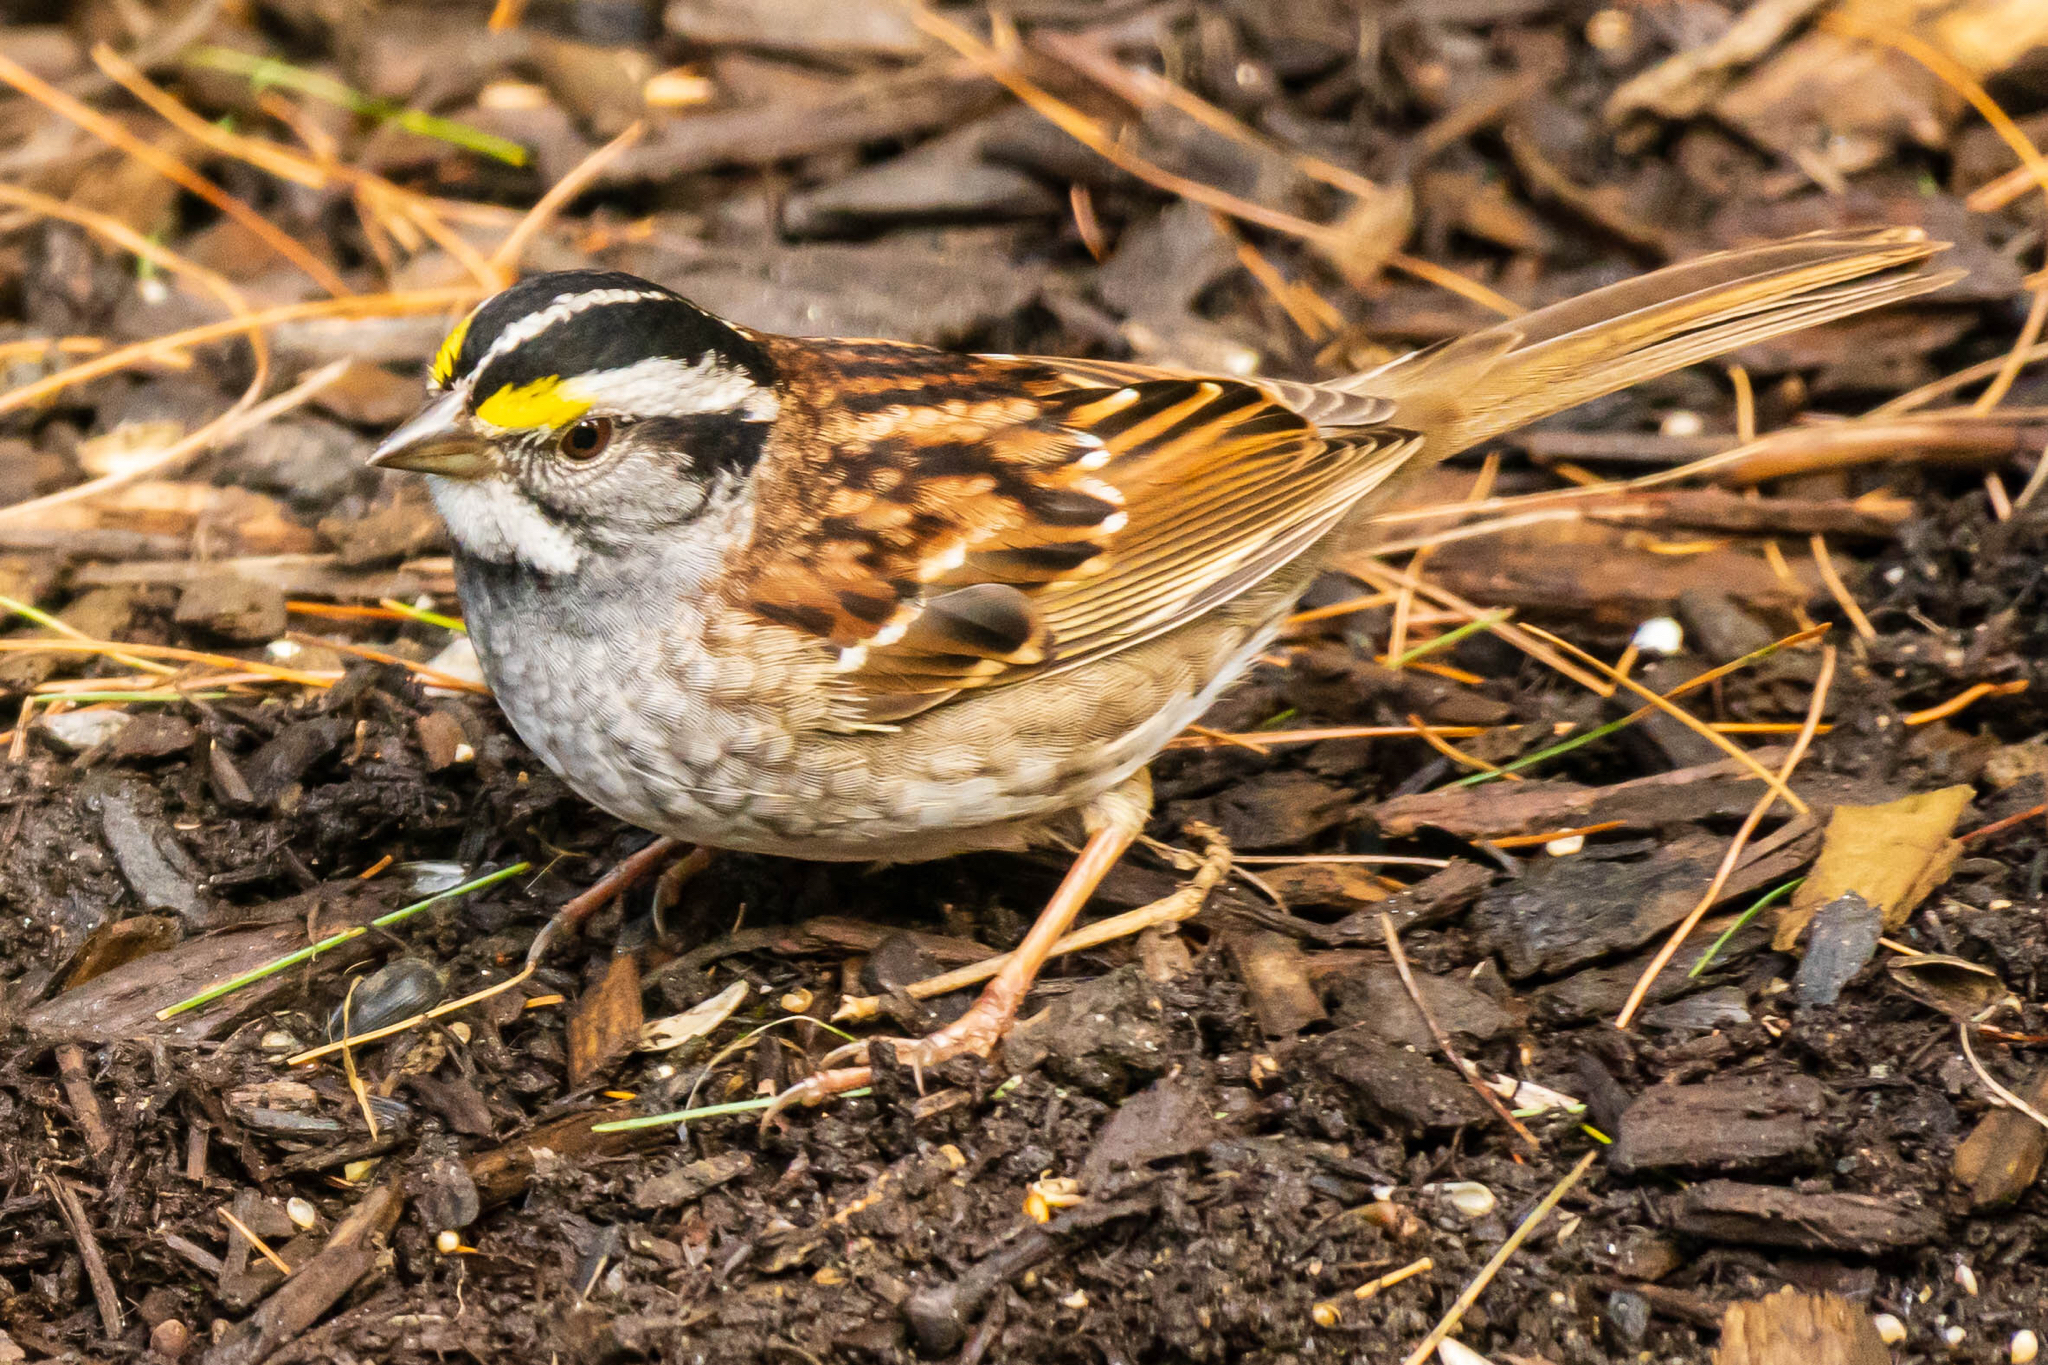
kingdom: Animalia
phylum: Chordata
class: Aves
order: Passeriformes
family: Passerellidae
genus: Zonotrichia
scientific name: Zonotrichia albicollis
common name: White-throated sparrow
